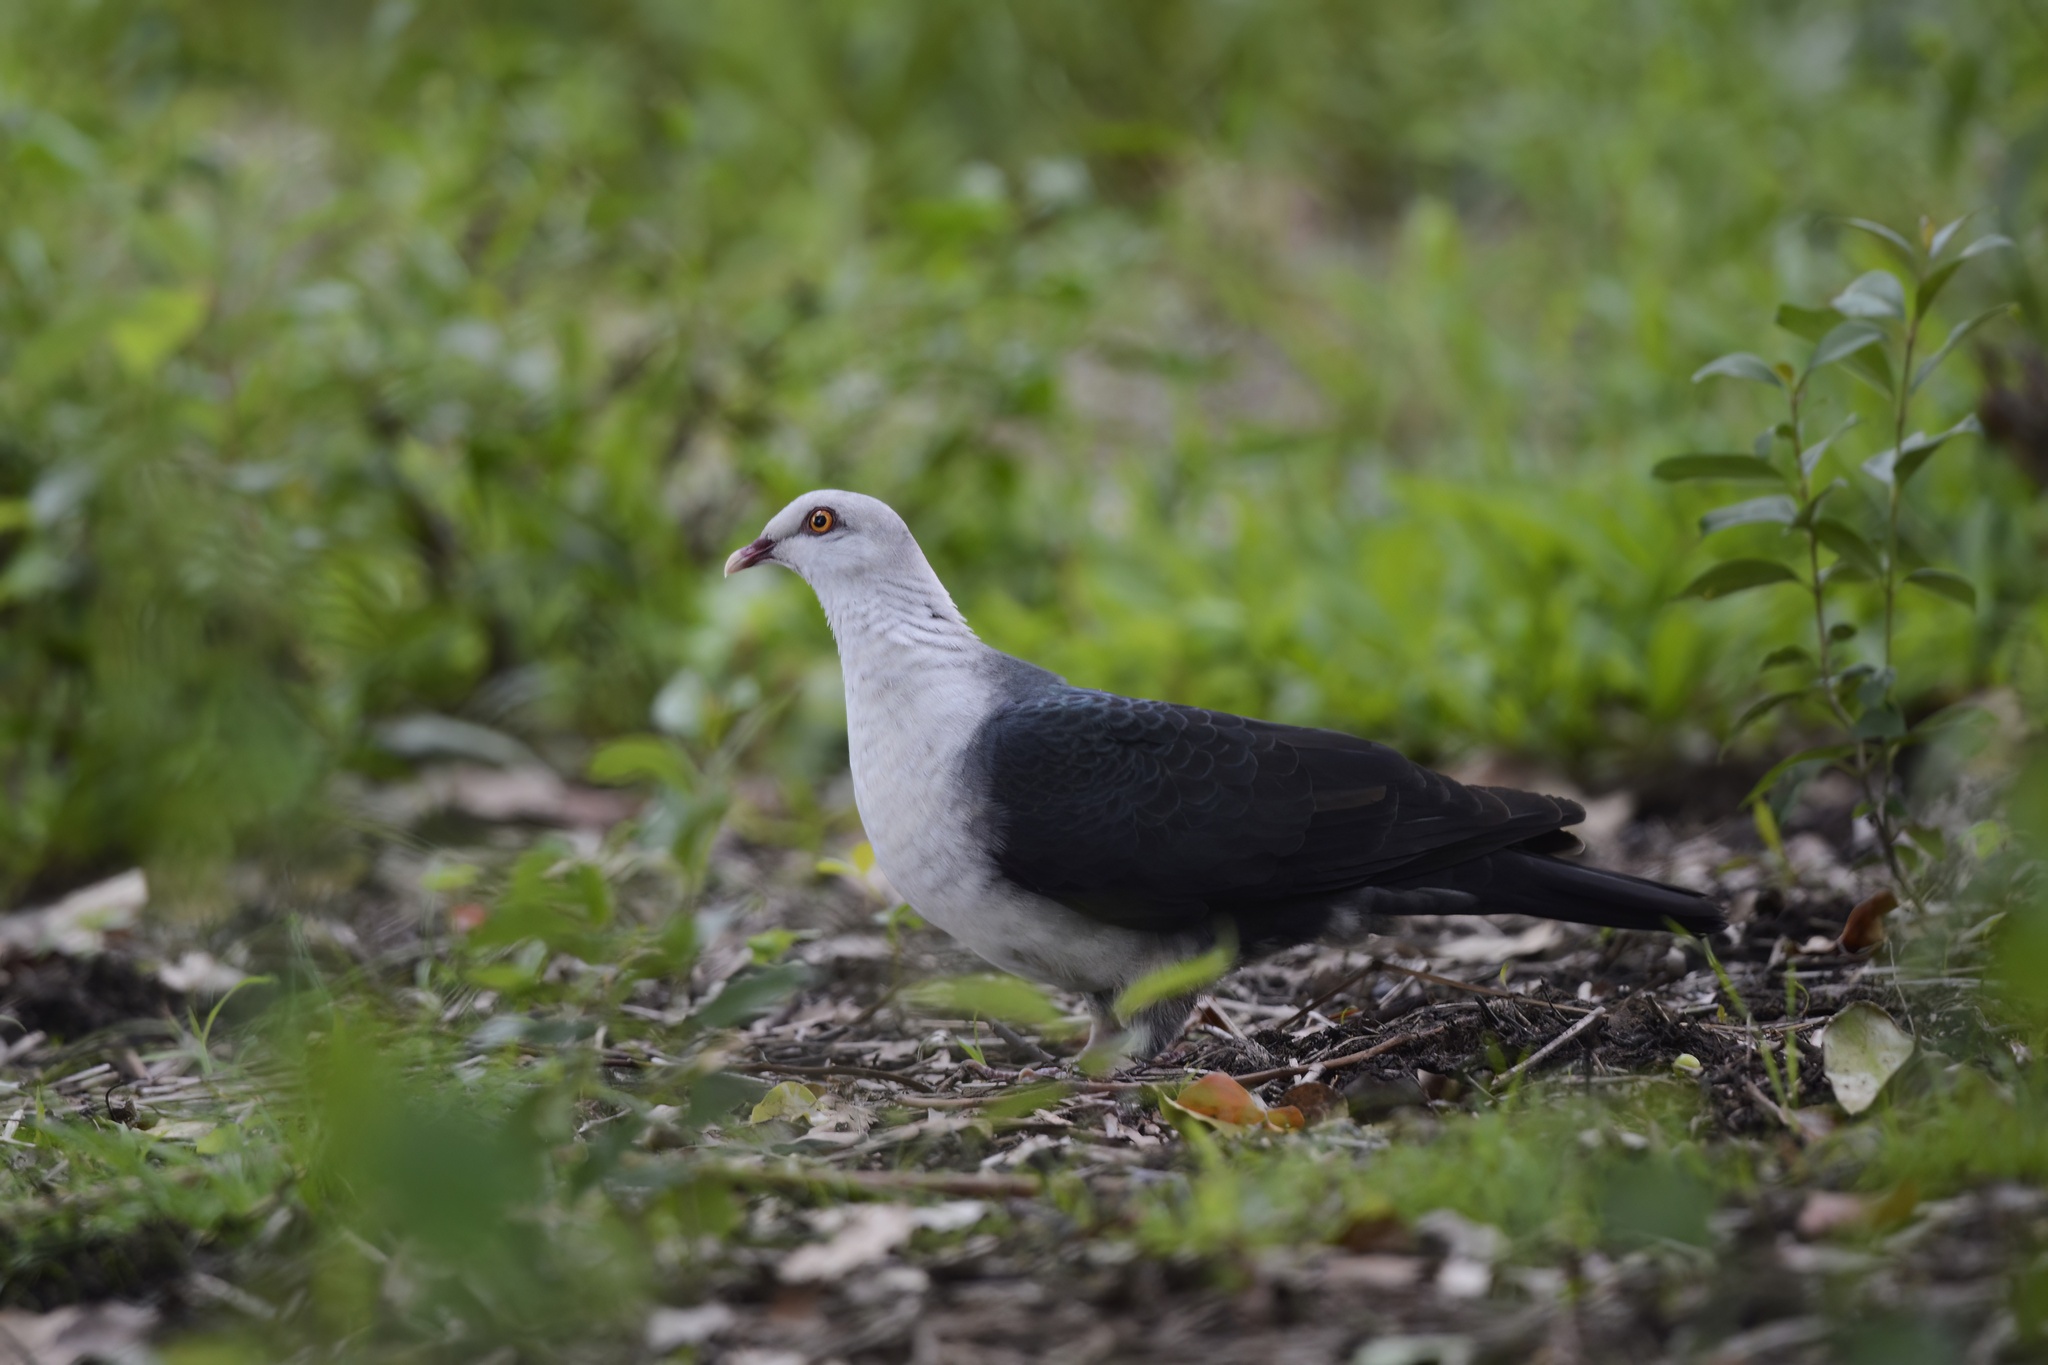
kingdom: Animalia
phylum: Chordata
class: Aves
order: Columbiformes
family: Columbidae
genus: Columba
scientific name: Columba leucomela
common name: White-headed pigeon
